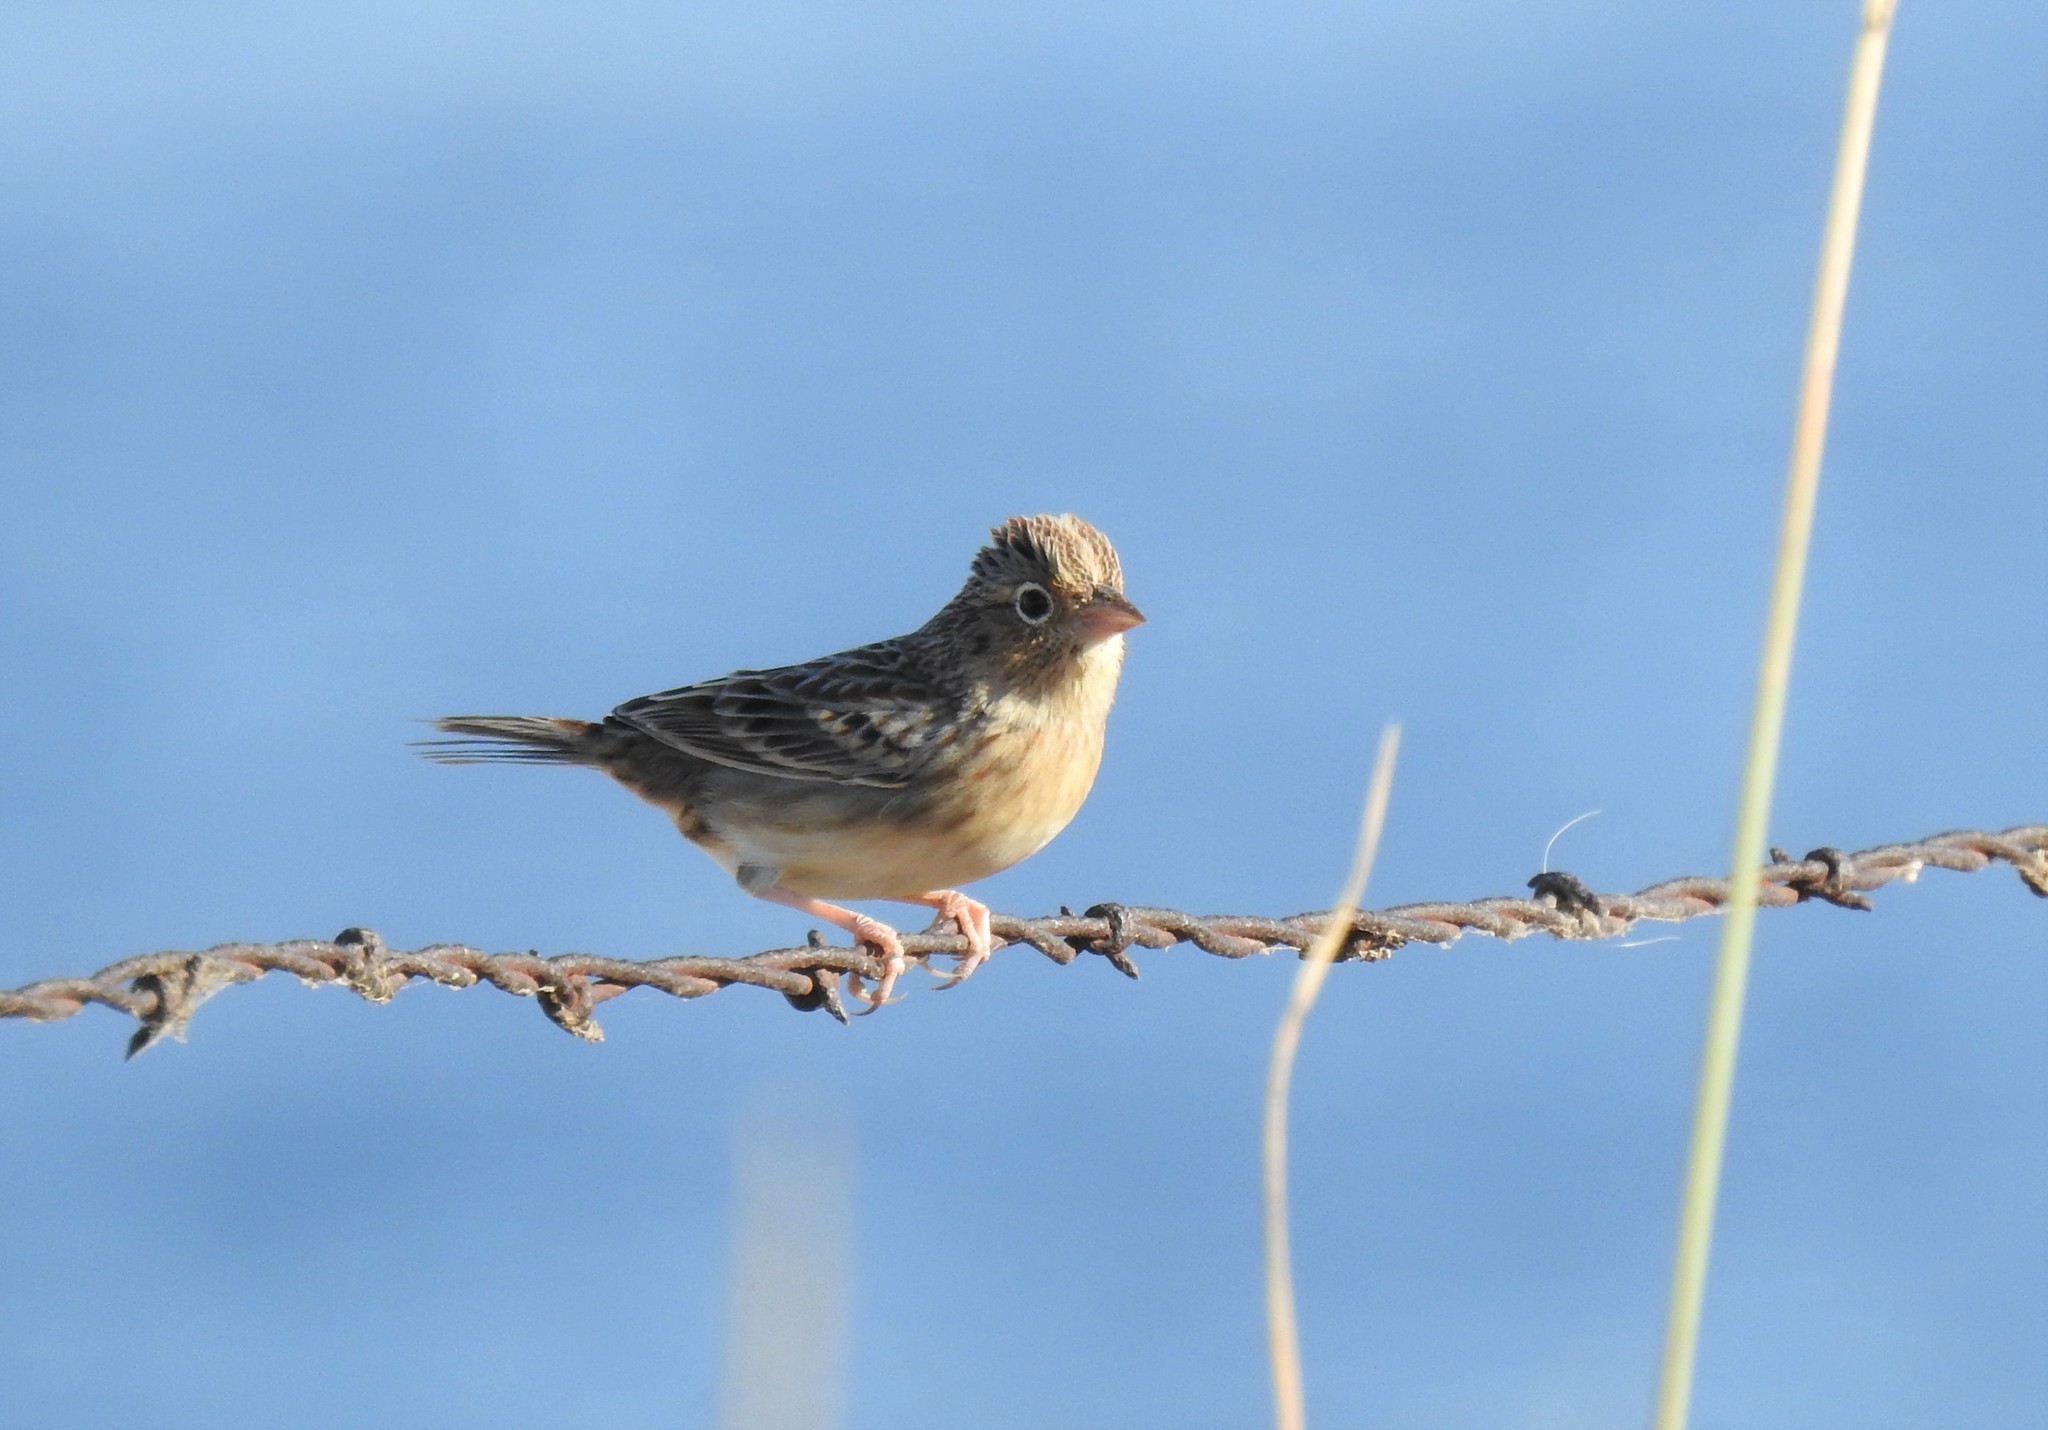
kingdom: Animalia
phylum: Chordata
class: Aves
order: Passeriformes
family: Passerellidae
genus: Ammodramus
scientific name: Ammodramus savannarum
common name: Grasshopper sparrow
